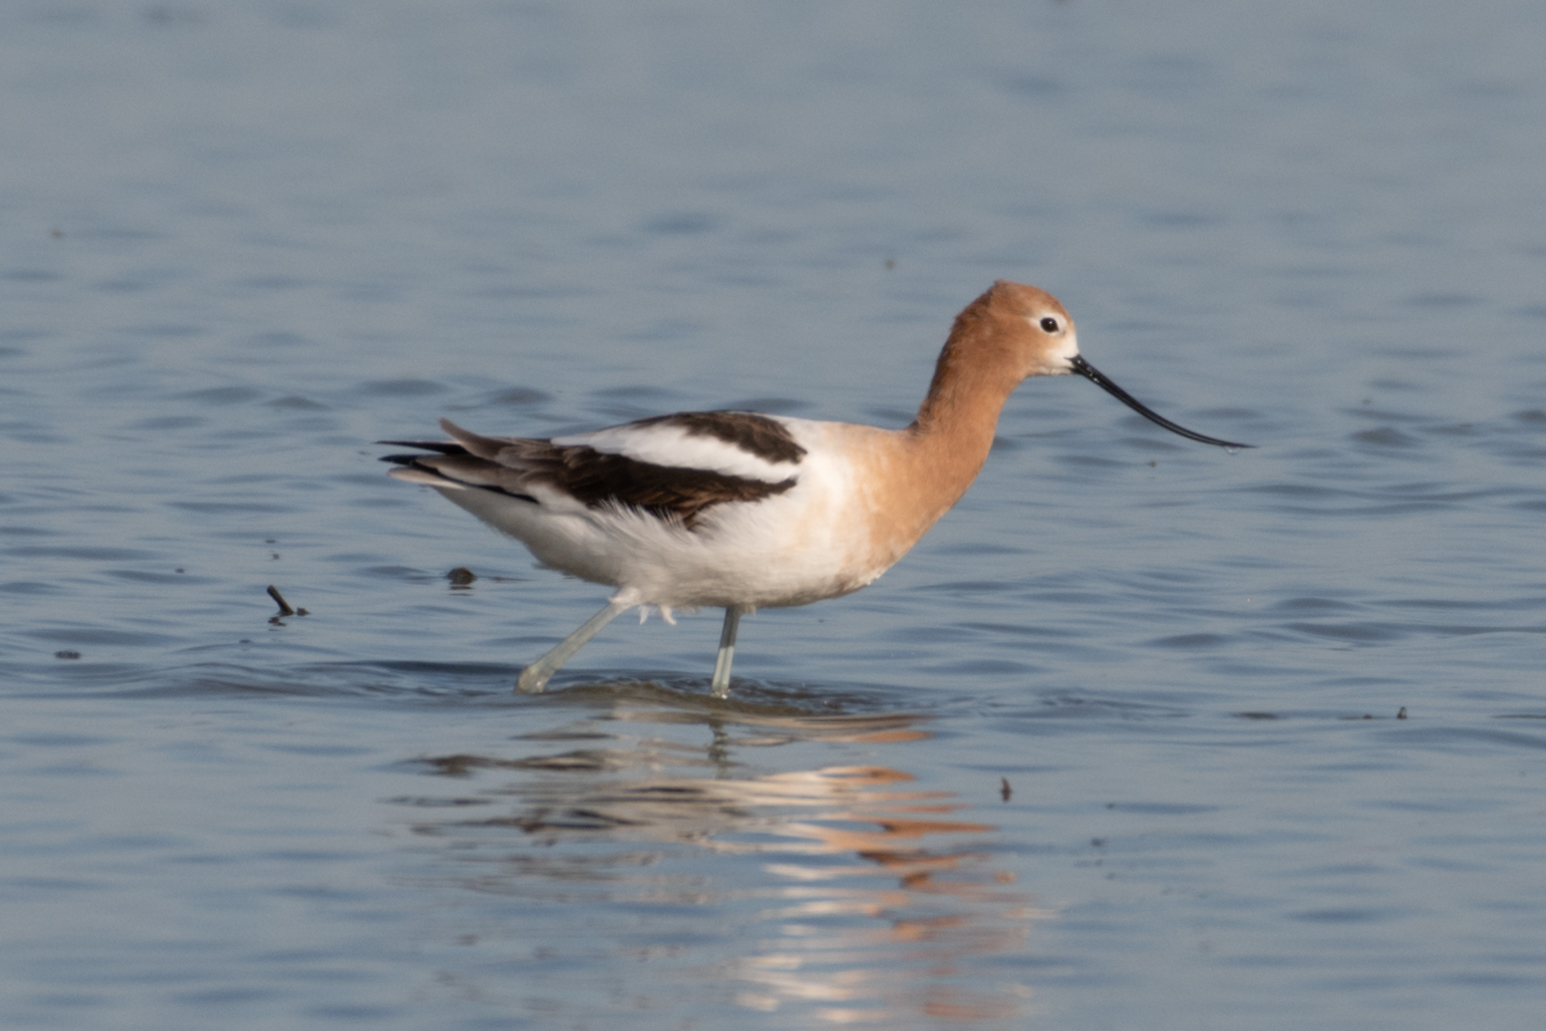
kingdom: Animalia
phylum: Chordata
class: Aves
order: Charadriiformes
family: Recurvirostridae
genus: Recurvirostra
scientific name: Recurvirostra americana
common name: American avocet
